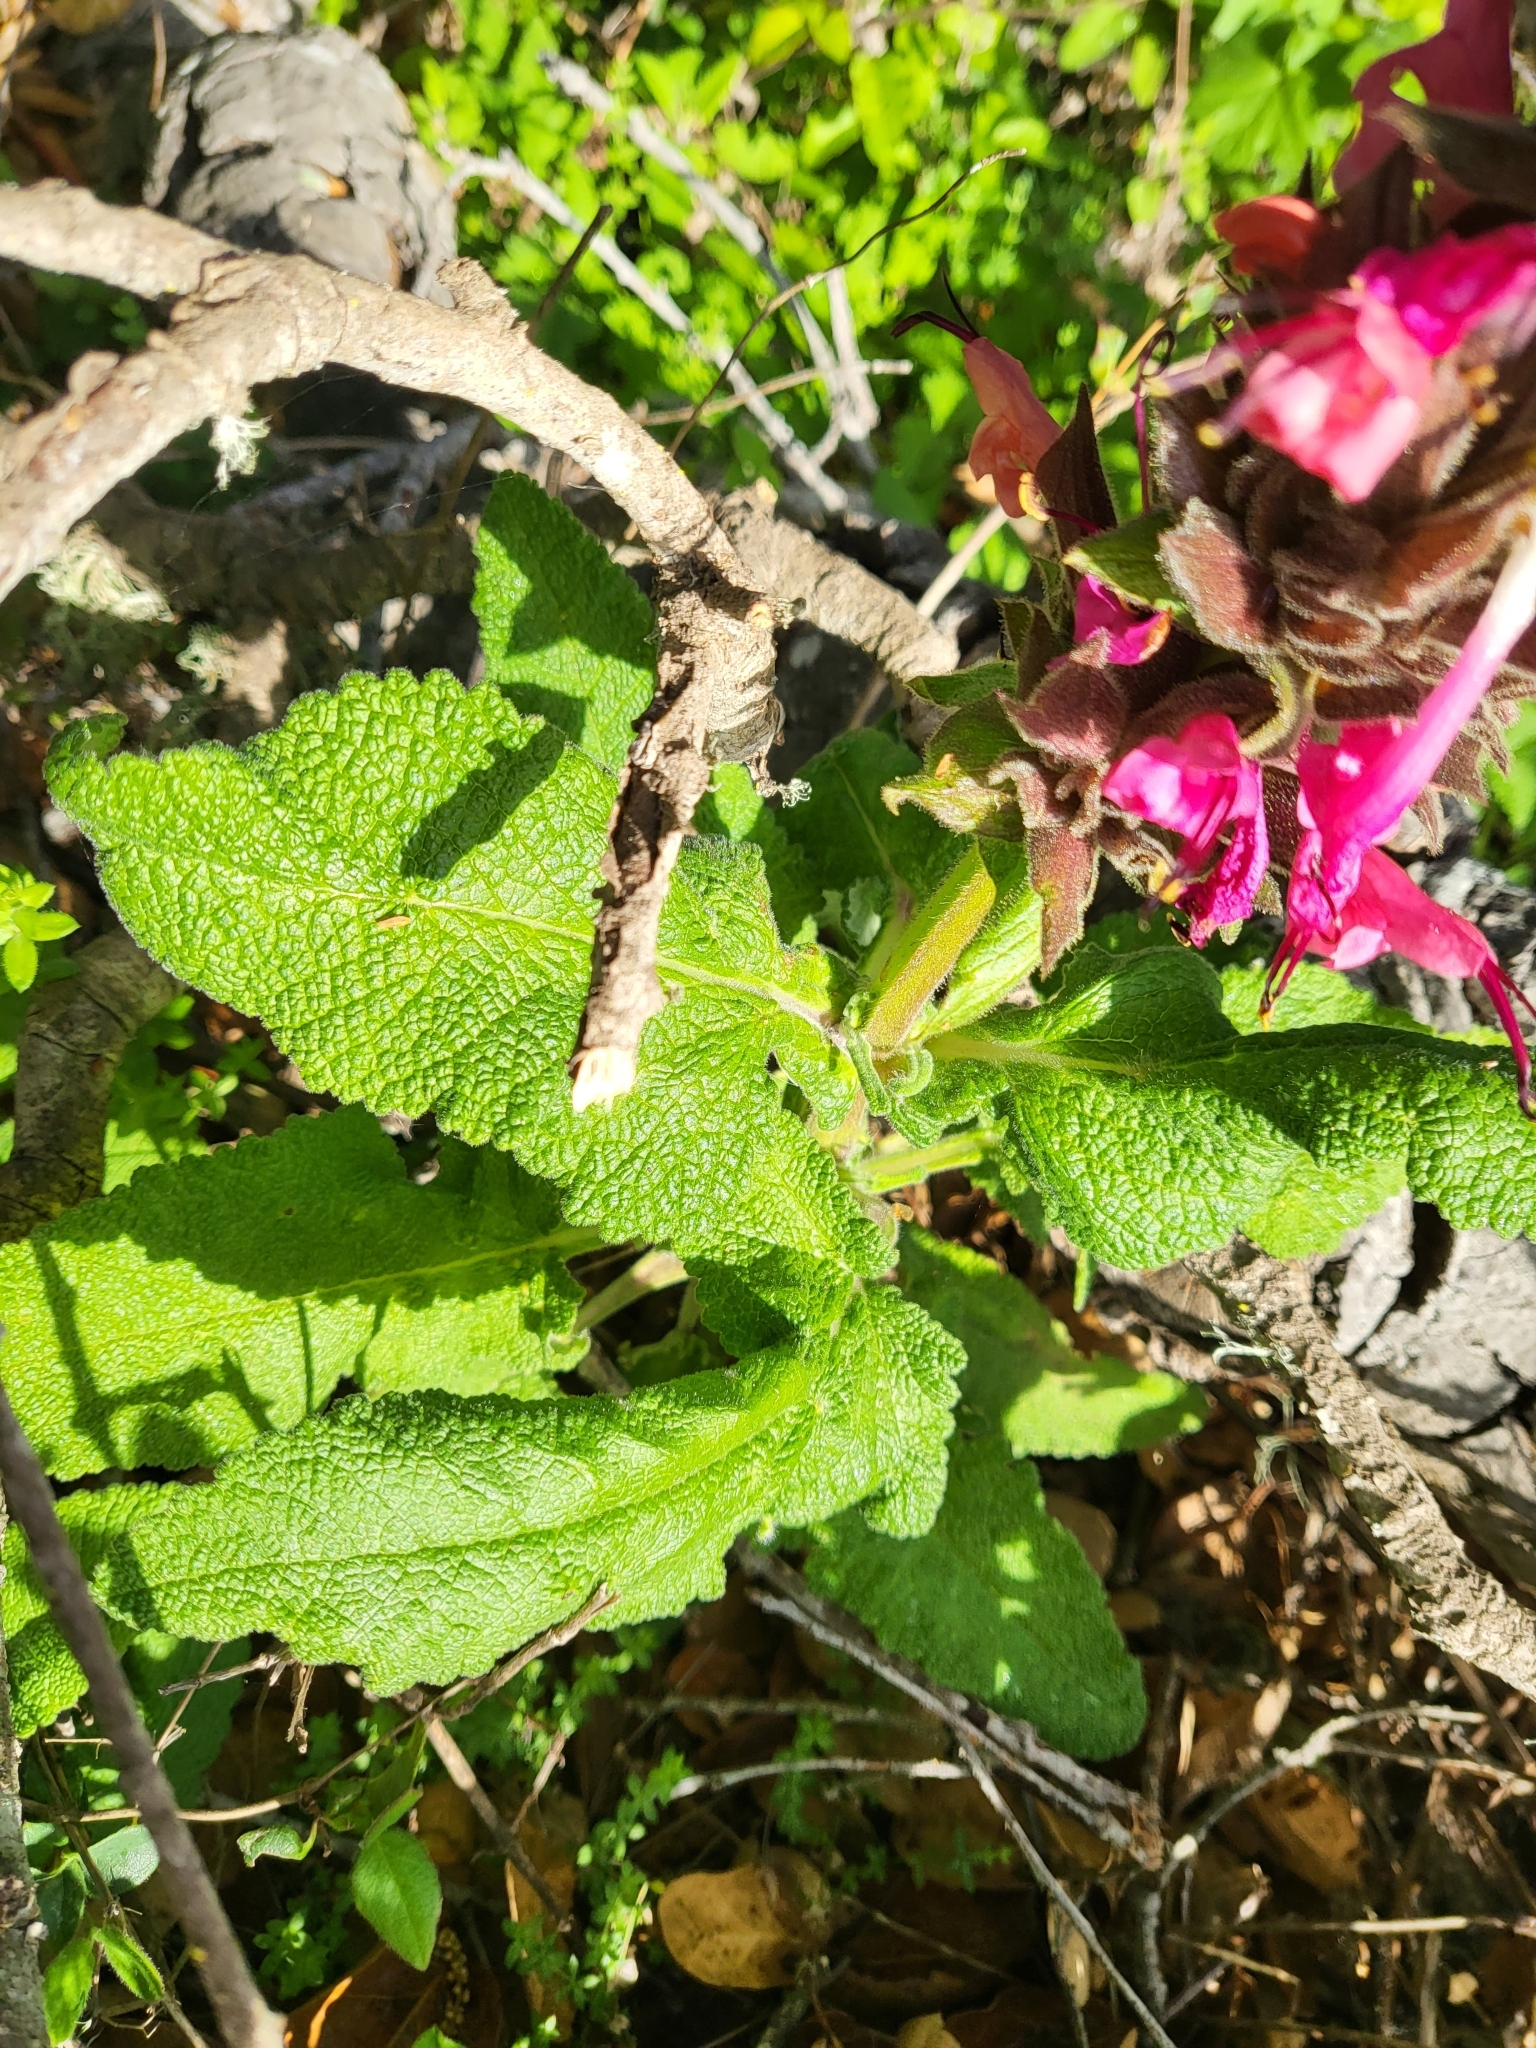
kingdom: Plantae
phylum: Tracheophyta
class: Magnoliopsida
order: Lamiales
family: Lamiaceae
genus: Salvia
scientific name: Salvia spathacea
